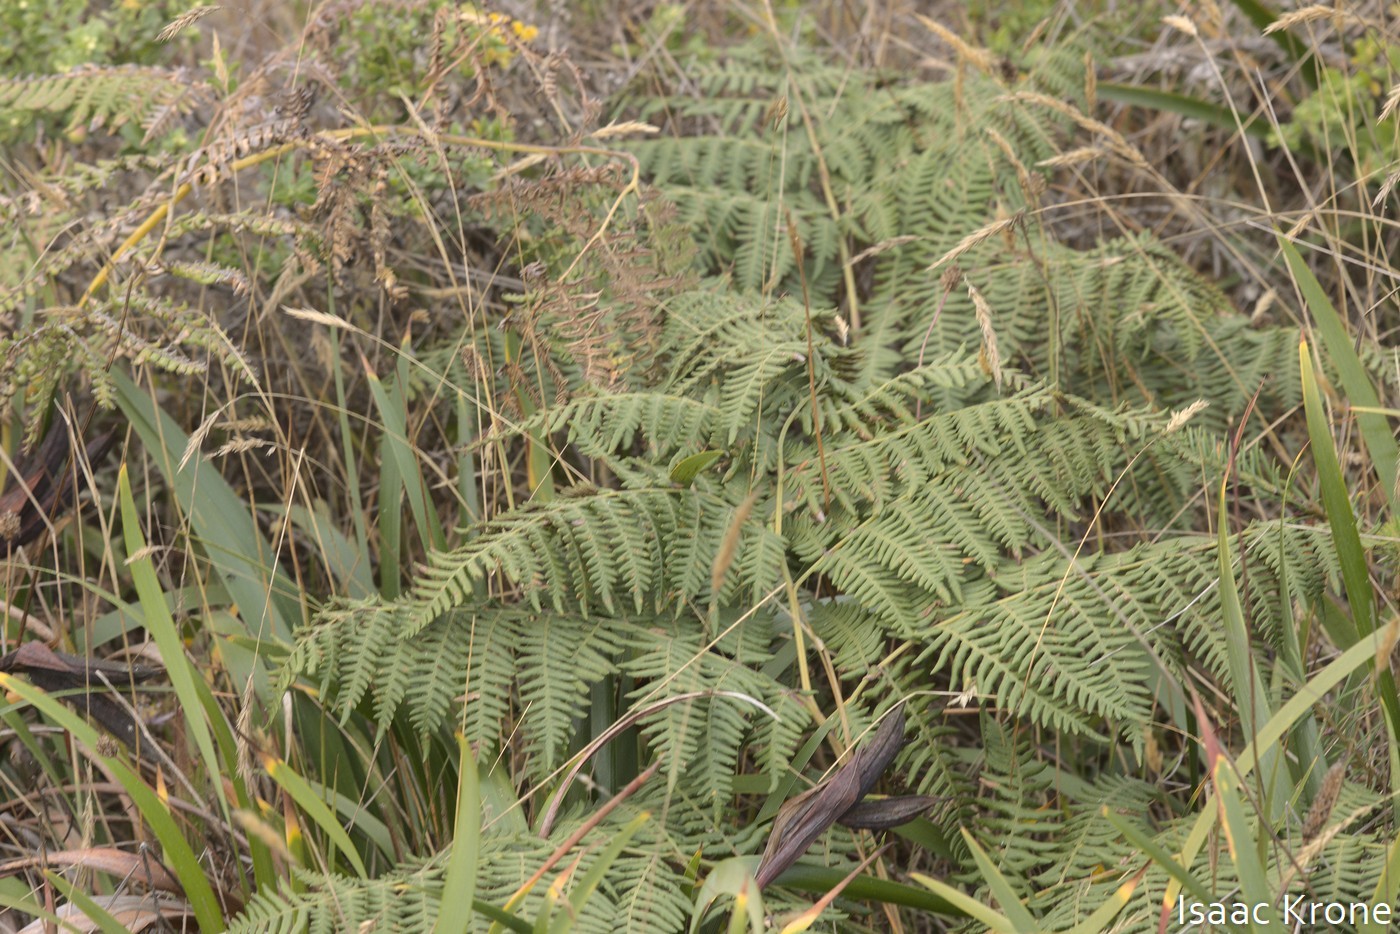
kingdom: Plantae
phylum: Tracheophyta
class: Polypodiopsida
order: Polypodiales
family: Dennstaedtiaceae
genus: Pteridium
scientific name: Pteridium aquilinum
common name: Bracken
